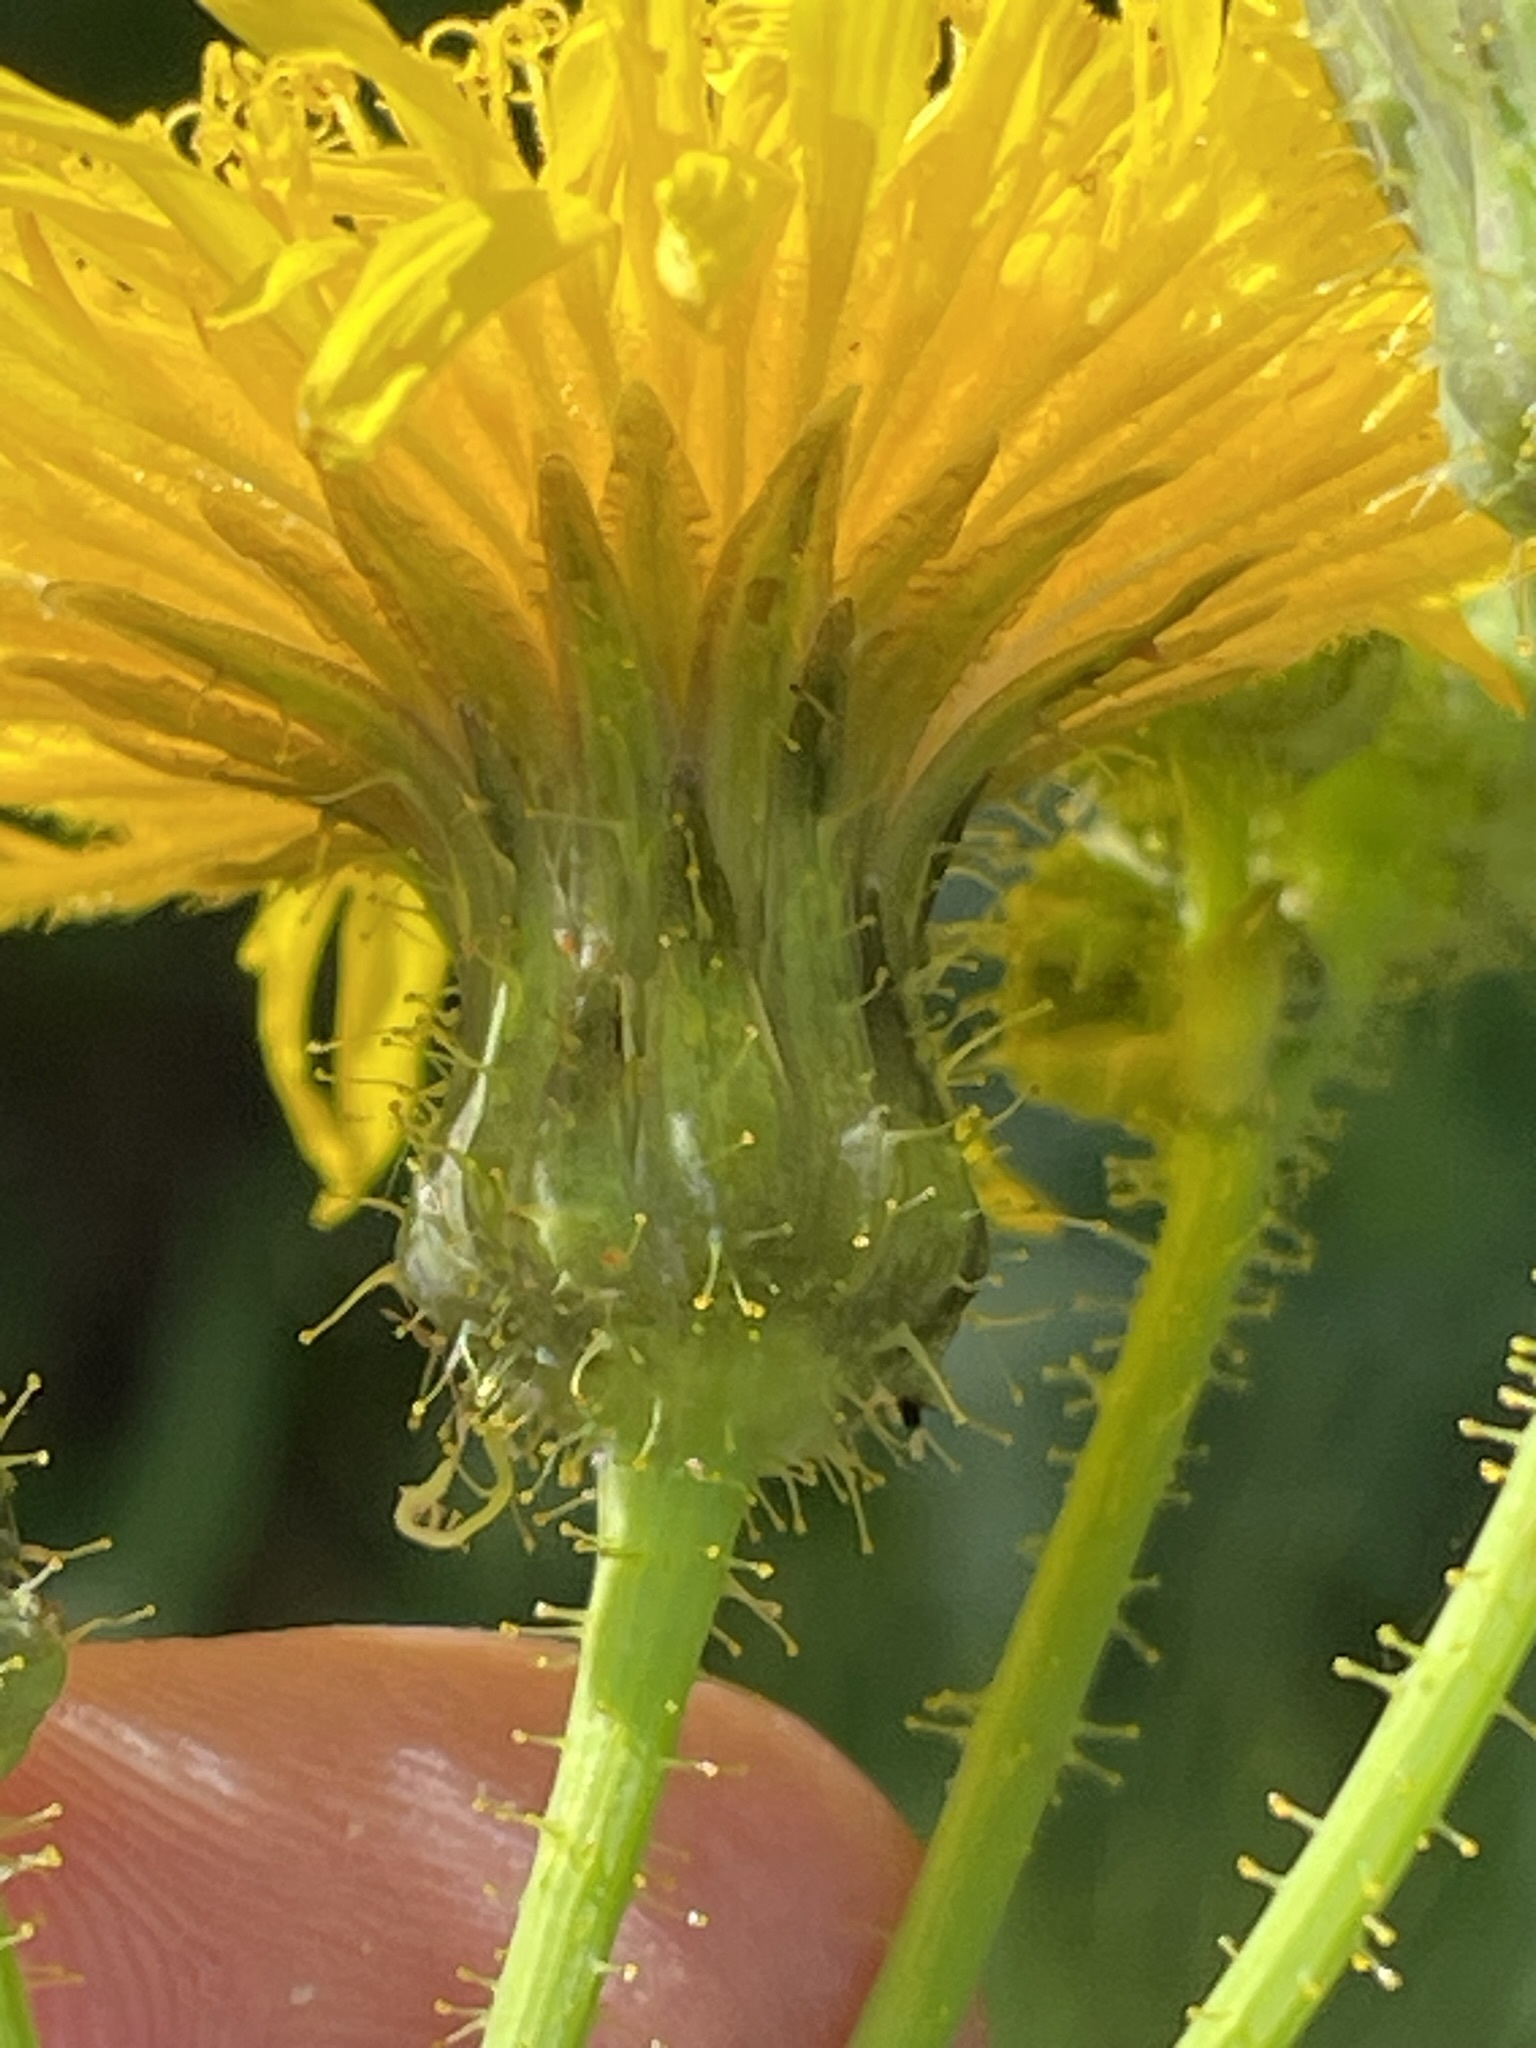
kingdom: Plantae
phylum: Tracheophyta
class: Magnoliopsida
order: Asterales
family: Asteraceae
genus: Sonchus
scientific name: Sonchus arvensis
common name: Perennial sow-thistle
